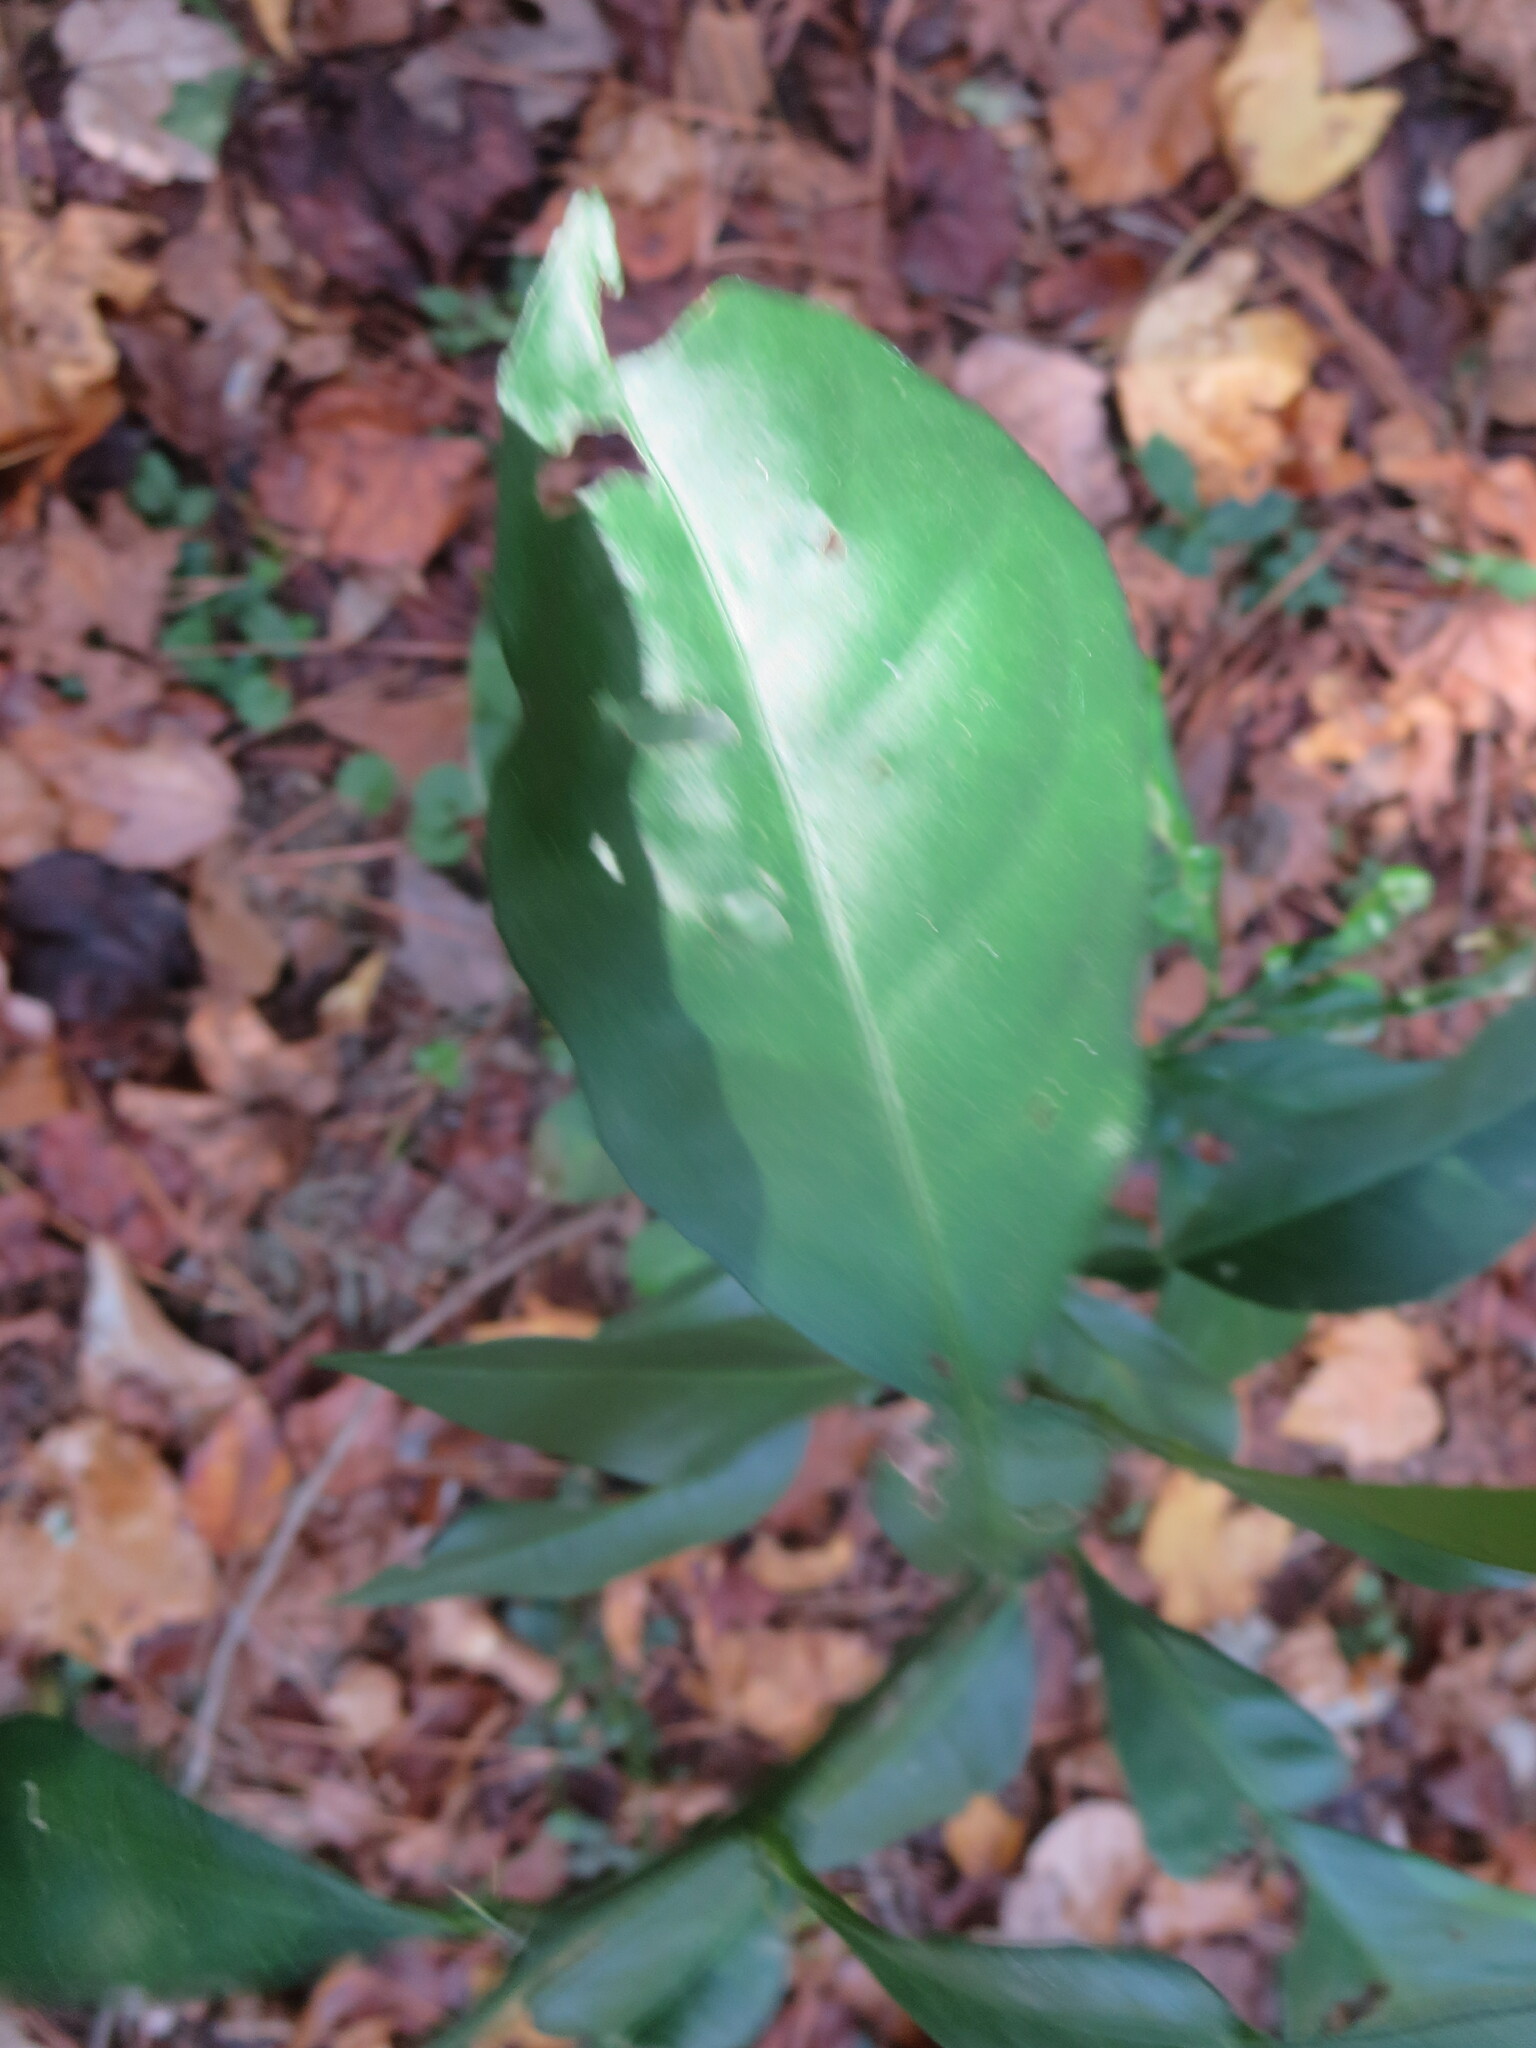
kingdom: Plantae
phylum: Tracheophyta
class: Magnoliopsida
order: Sapindales
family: Rutaceae
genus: Citrus
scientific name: Citrus aurantium
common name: Sour orange
